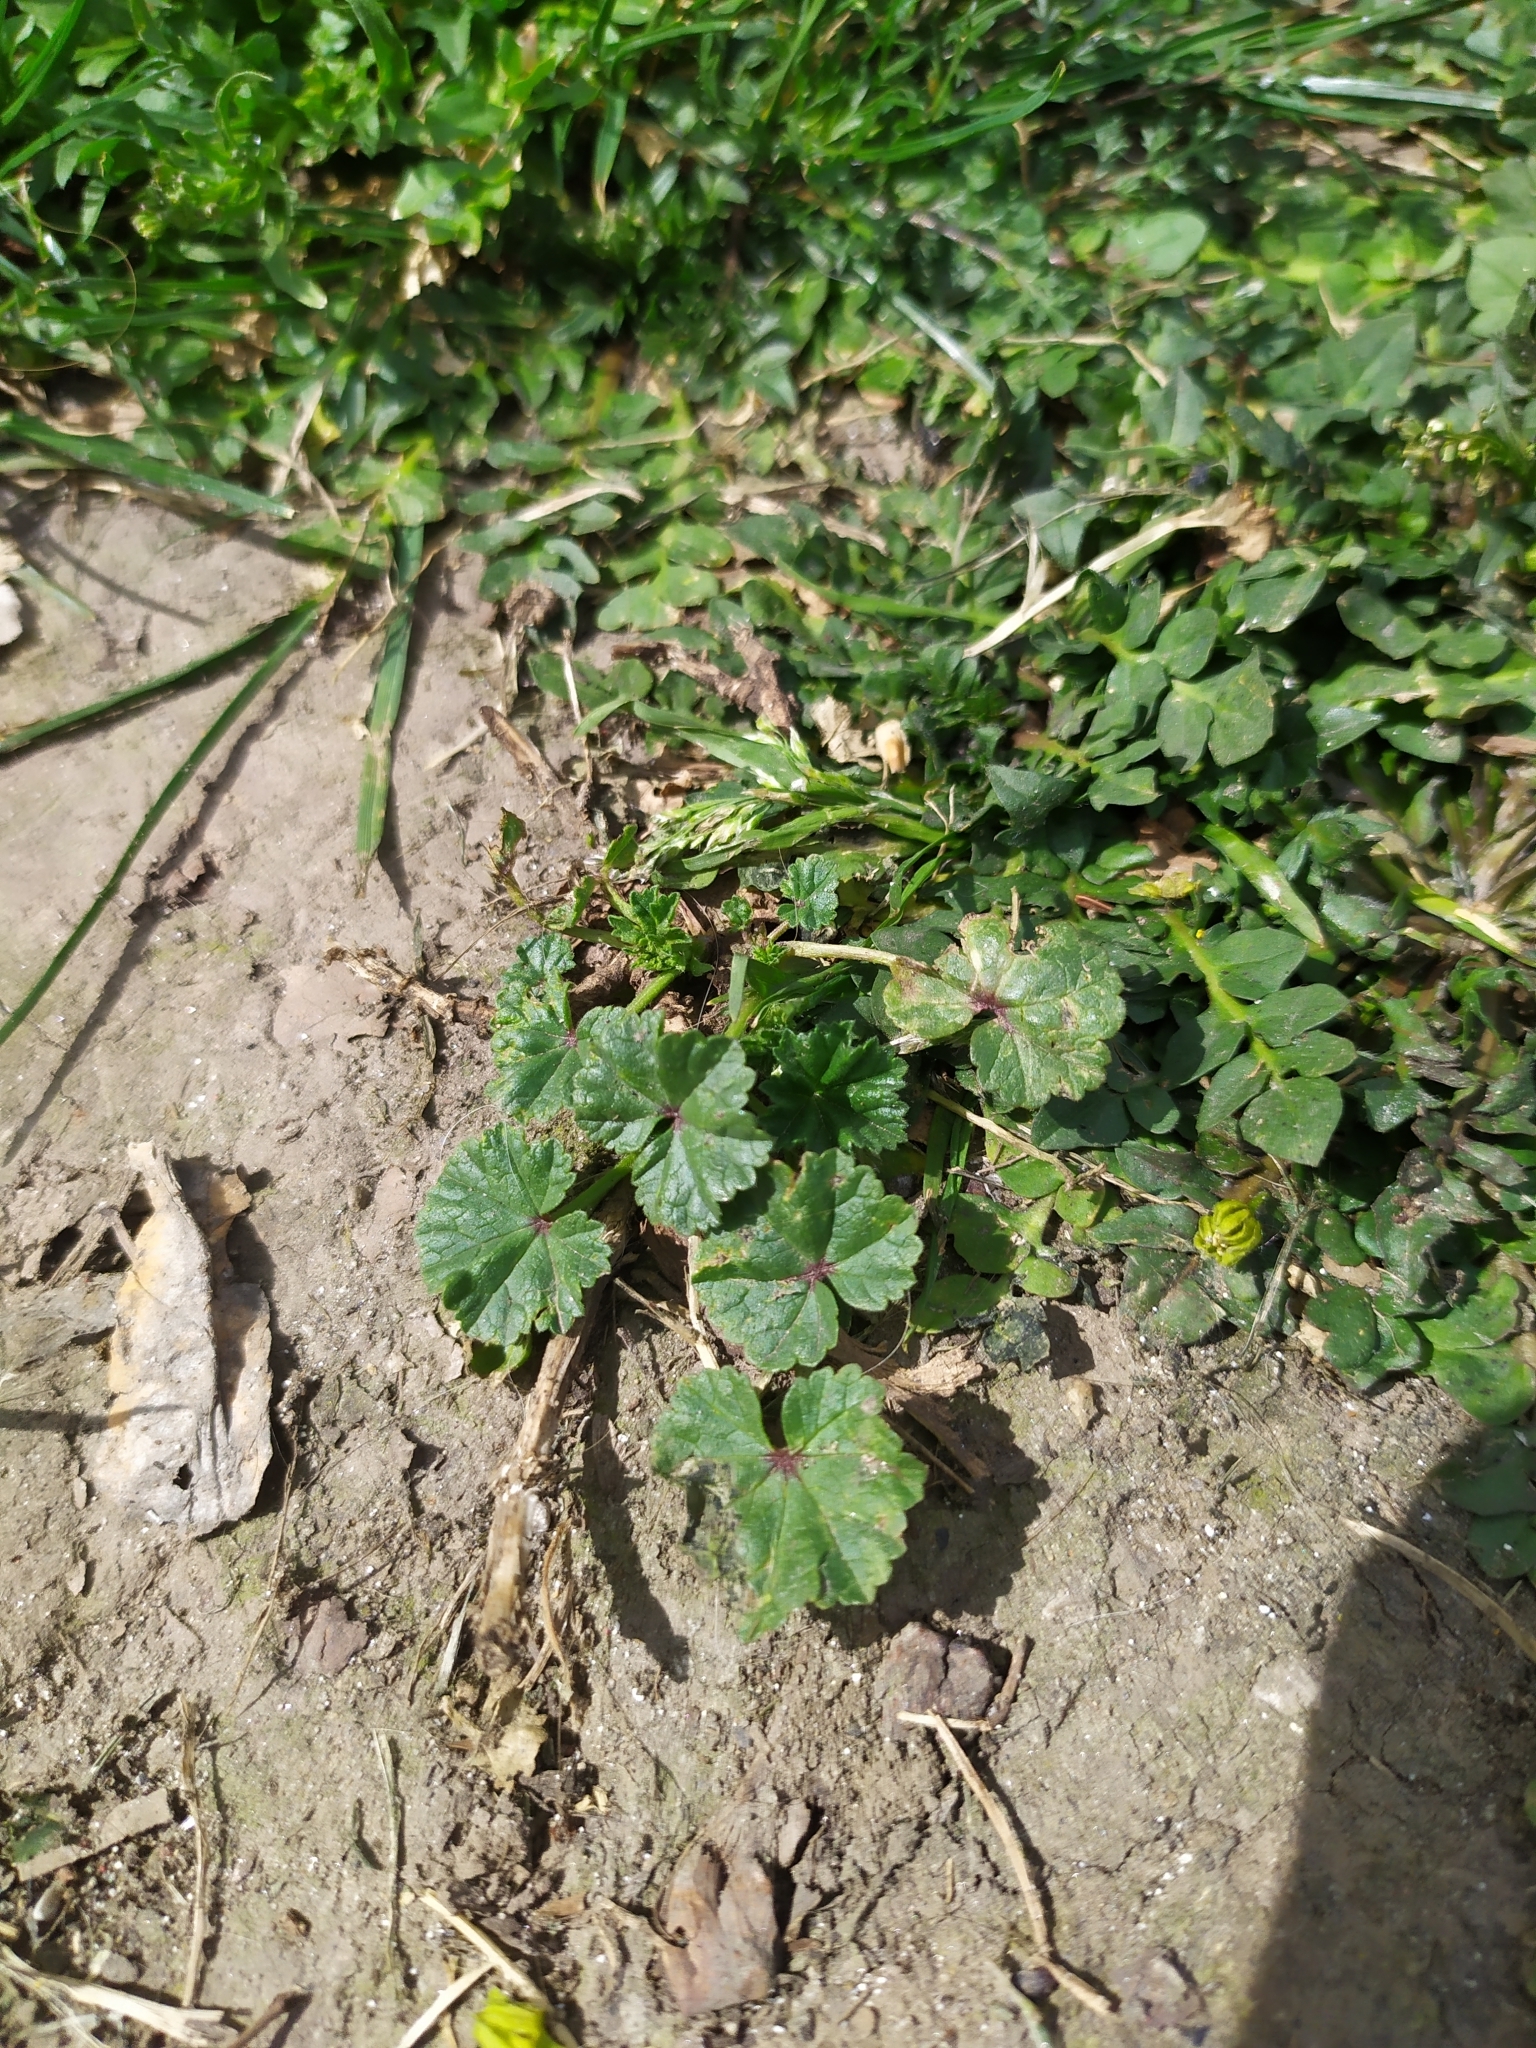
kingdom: Plantae
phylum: Tracheophyta
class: Magnoliopsida
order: Malvales
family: Malvaceae
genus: Malva
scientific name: Malva neglecta
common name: Common mallow
